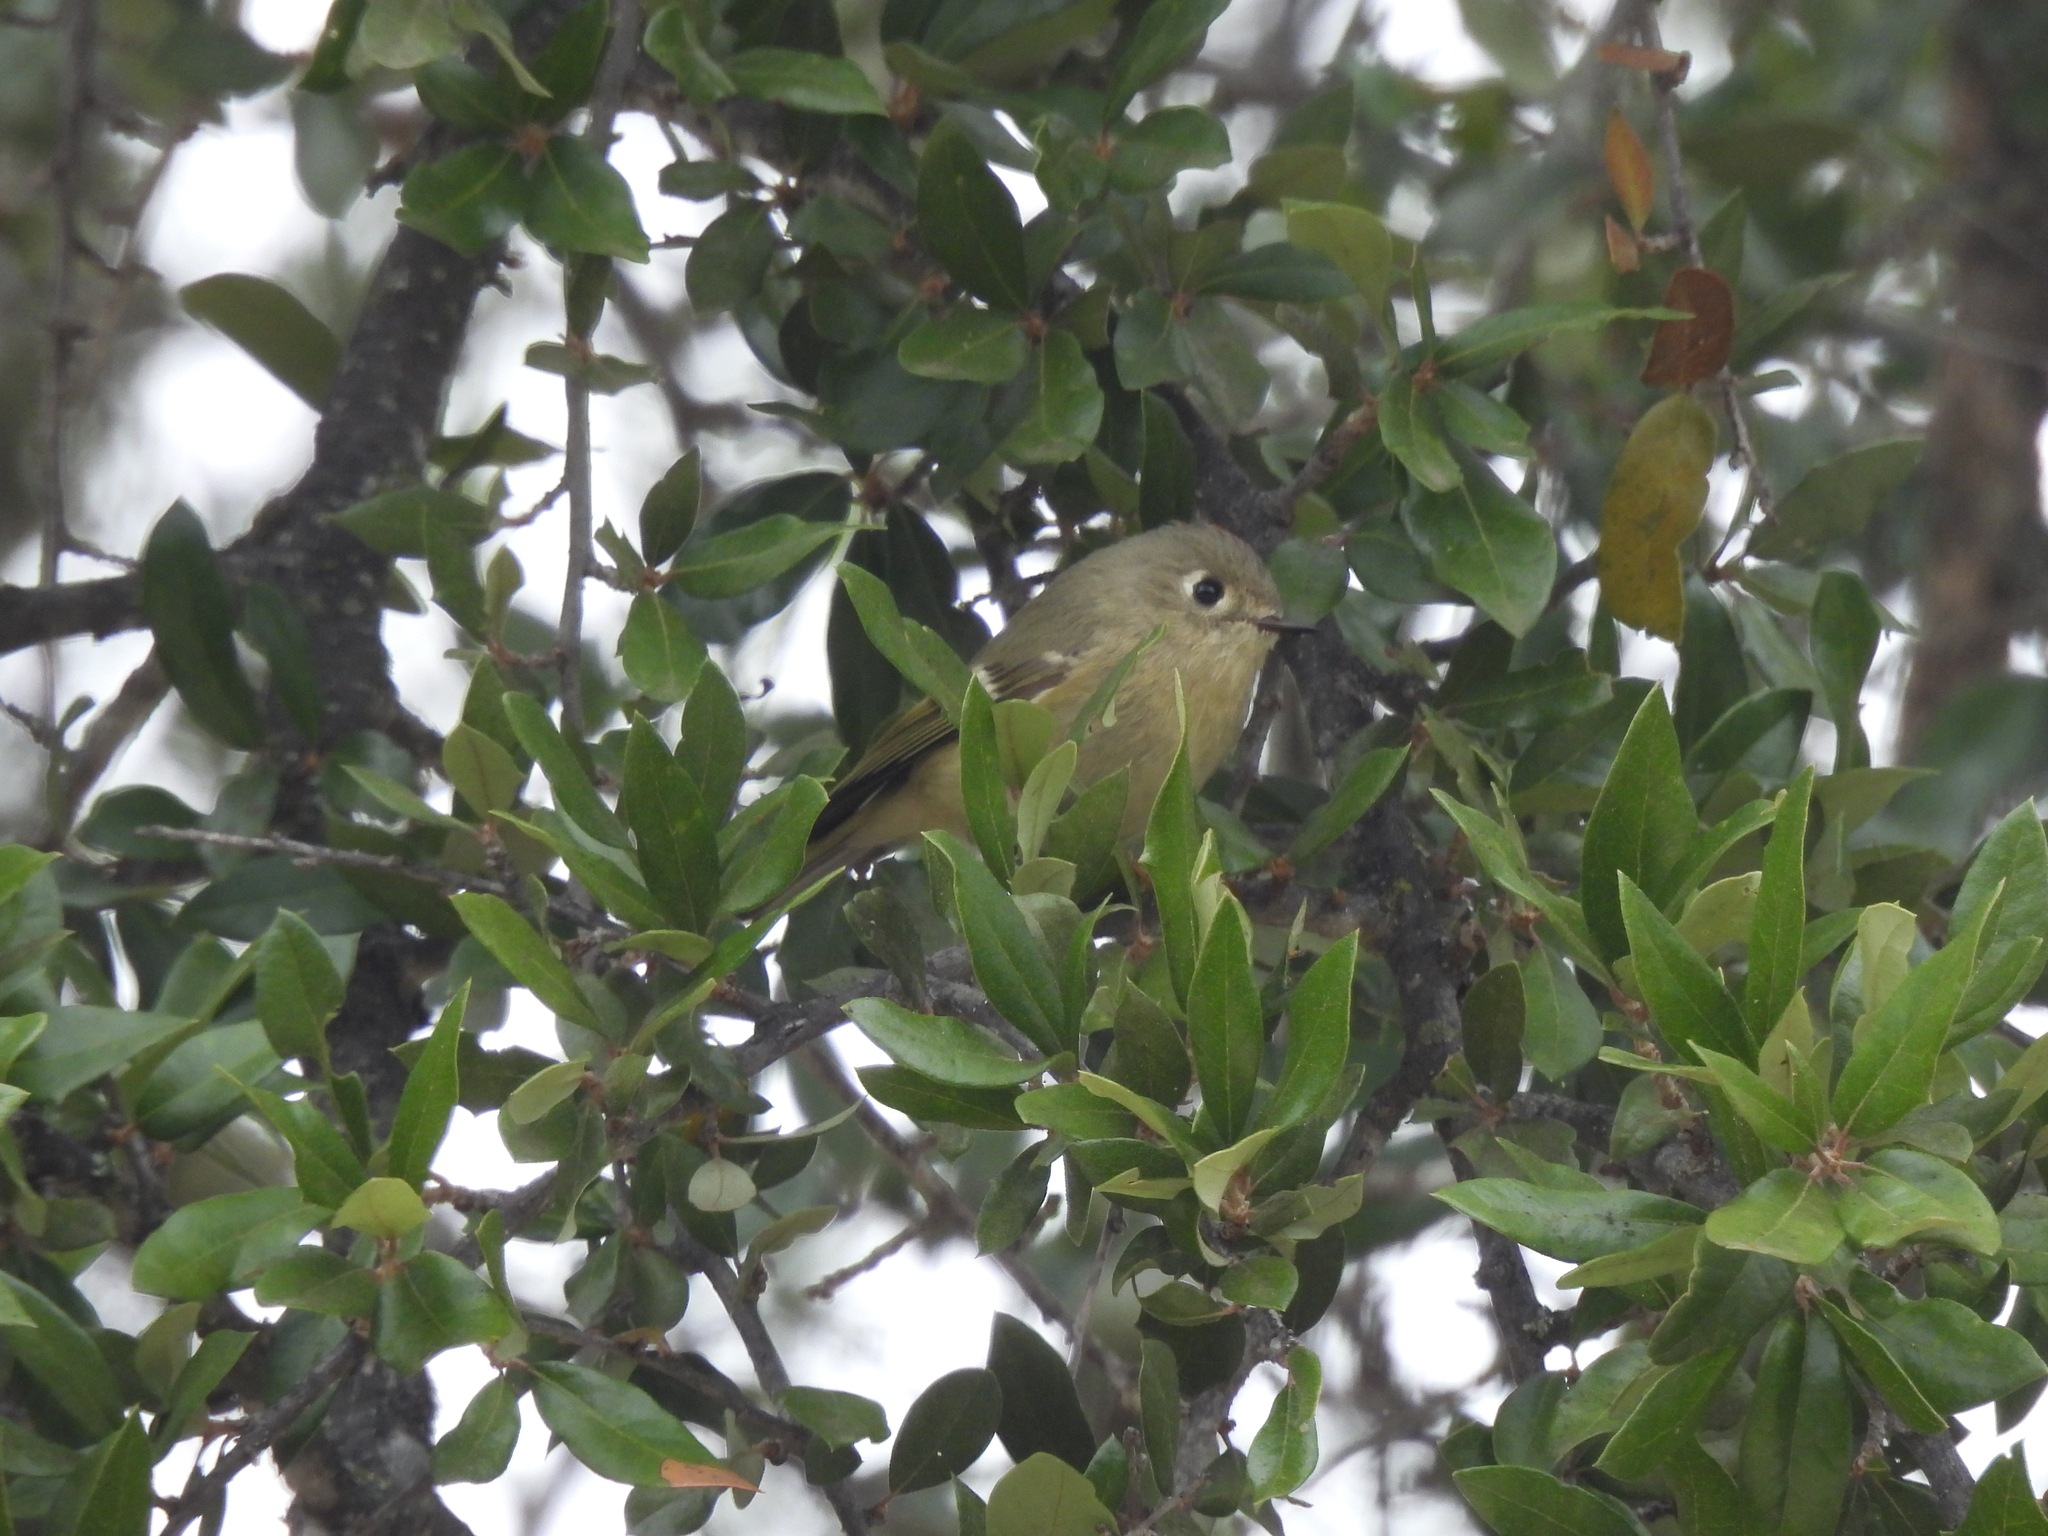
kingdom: Animalia
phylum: Chordata
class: Aves
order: Passeriformes
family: Regulidae
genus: Regulus
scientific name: Regulus calendula
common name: Ruby-crowned kinglet
